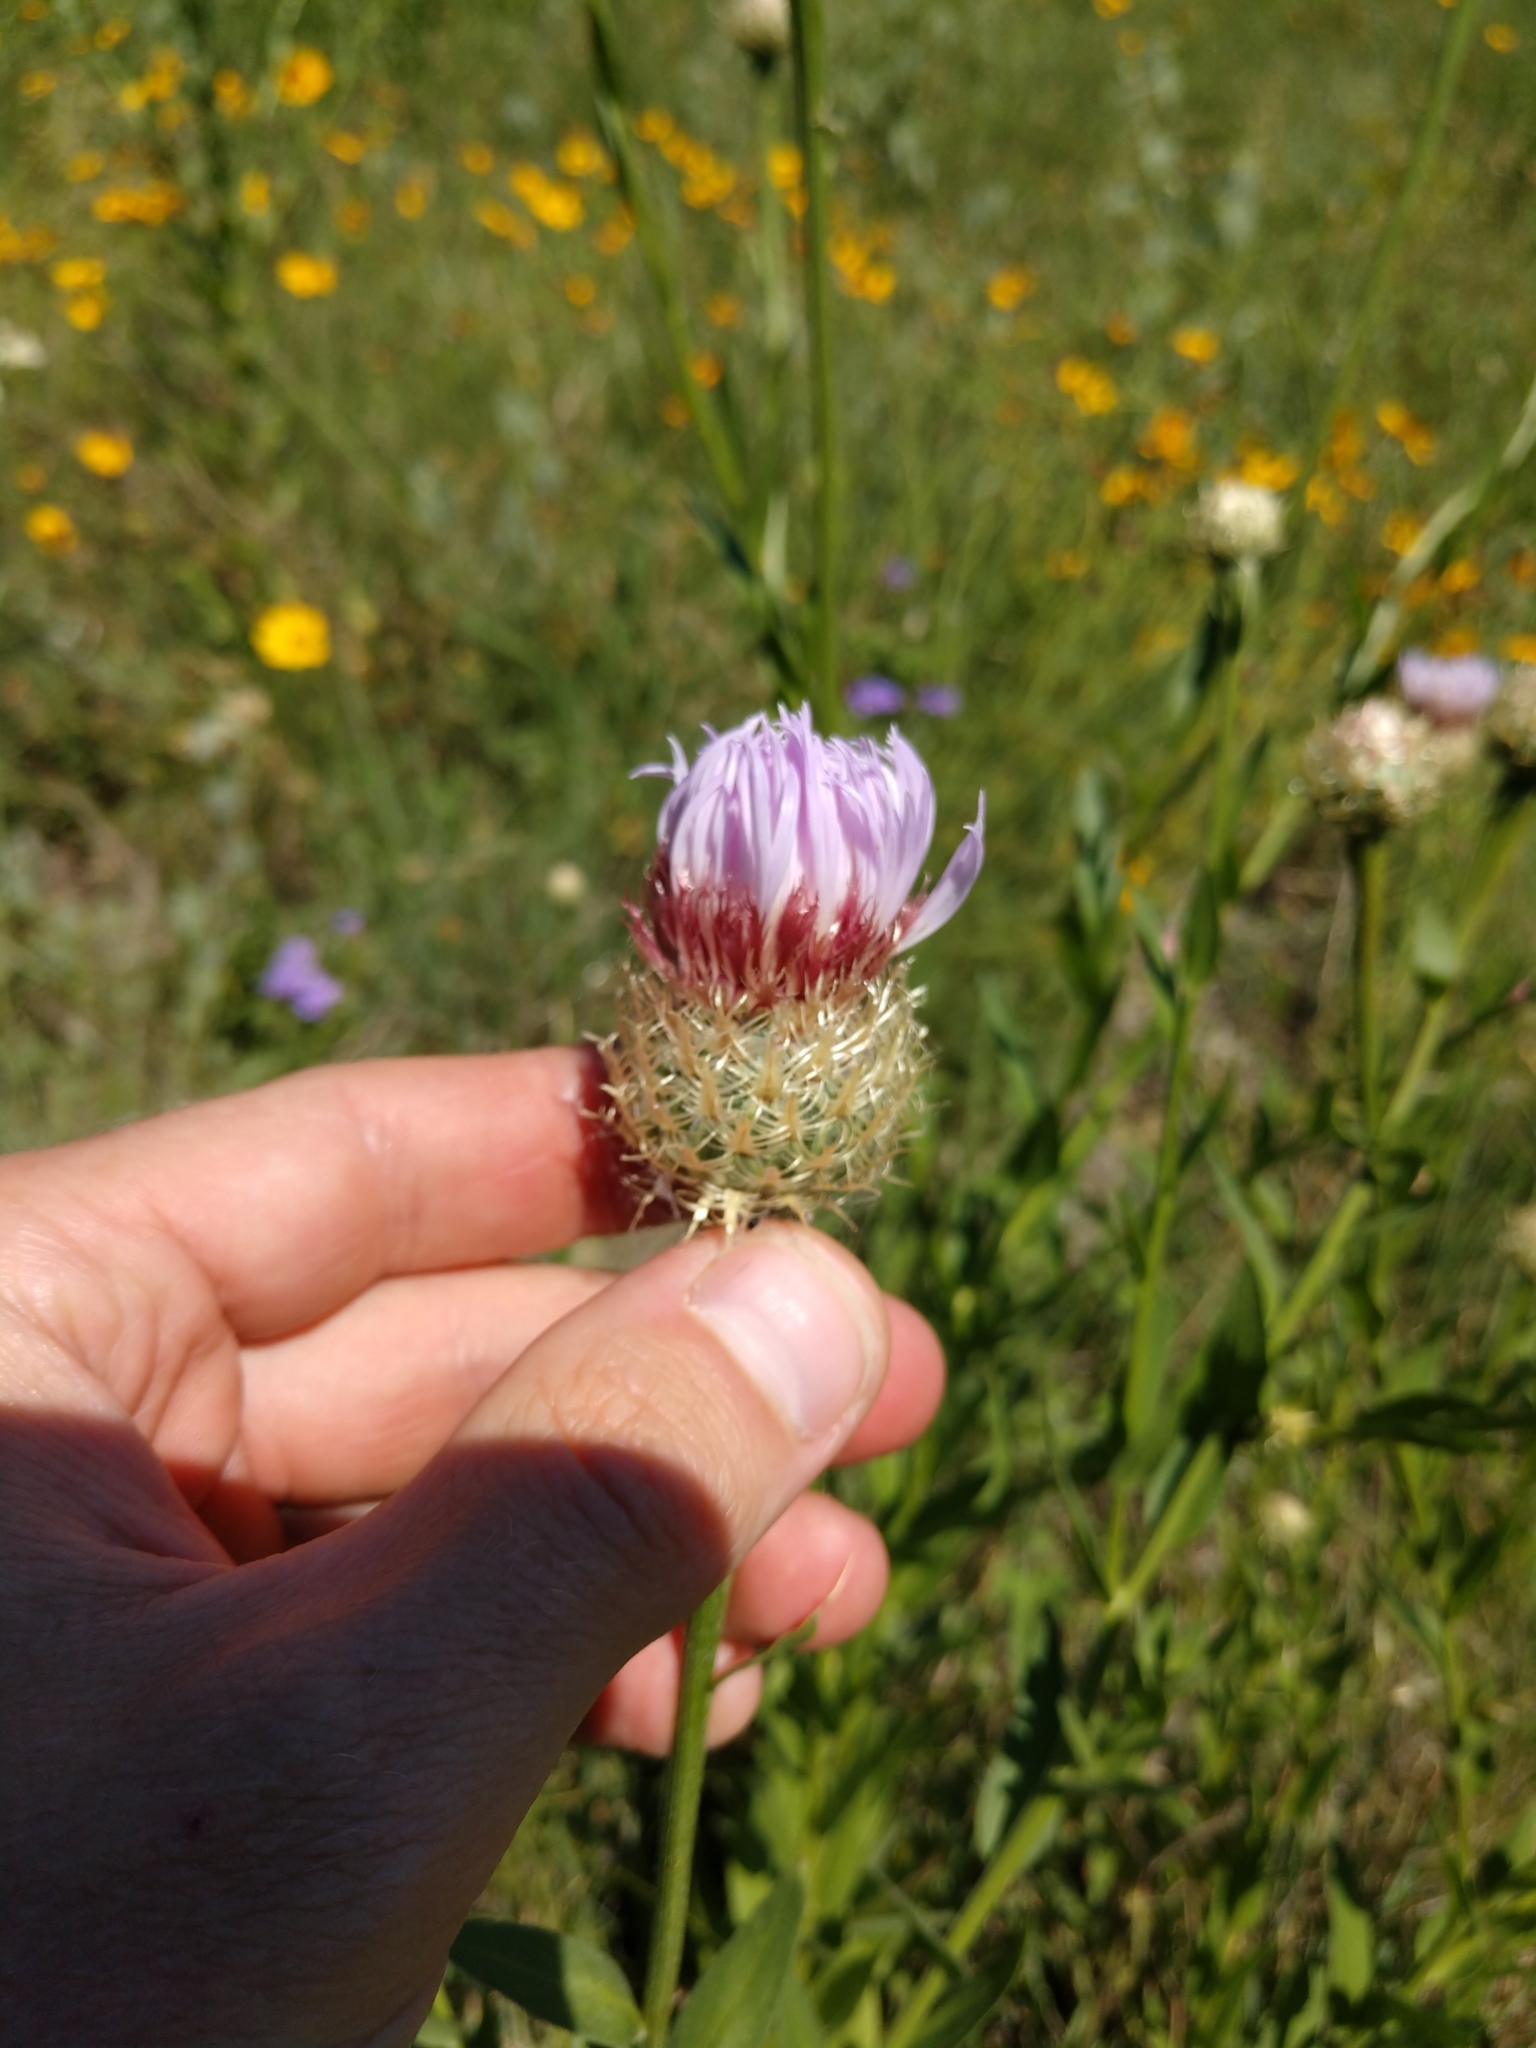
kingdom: Plantae
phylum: Tracheophyta
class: Magnoliopsida
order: Asterales
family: Asteraceae
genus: Plectocephalus
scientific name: Plectocephalus americanus
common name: American basket-flower
